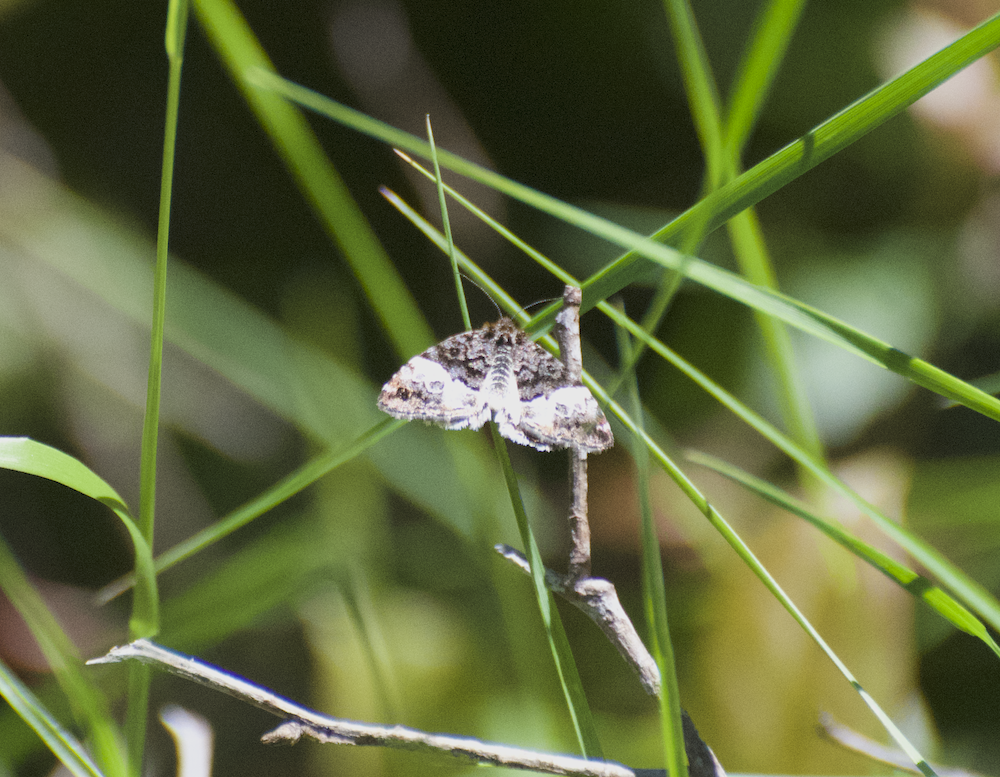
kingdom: Animalia
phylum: Arthropoda
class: Insecta
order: Lepidoptera
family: Noctuidae
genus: Annaphila
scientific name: Annaphila diva
